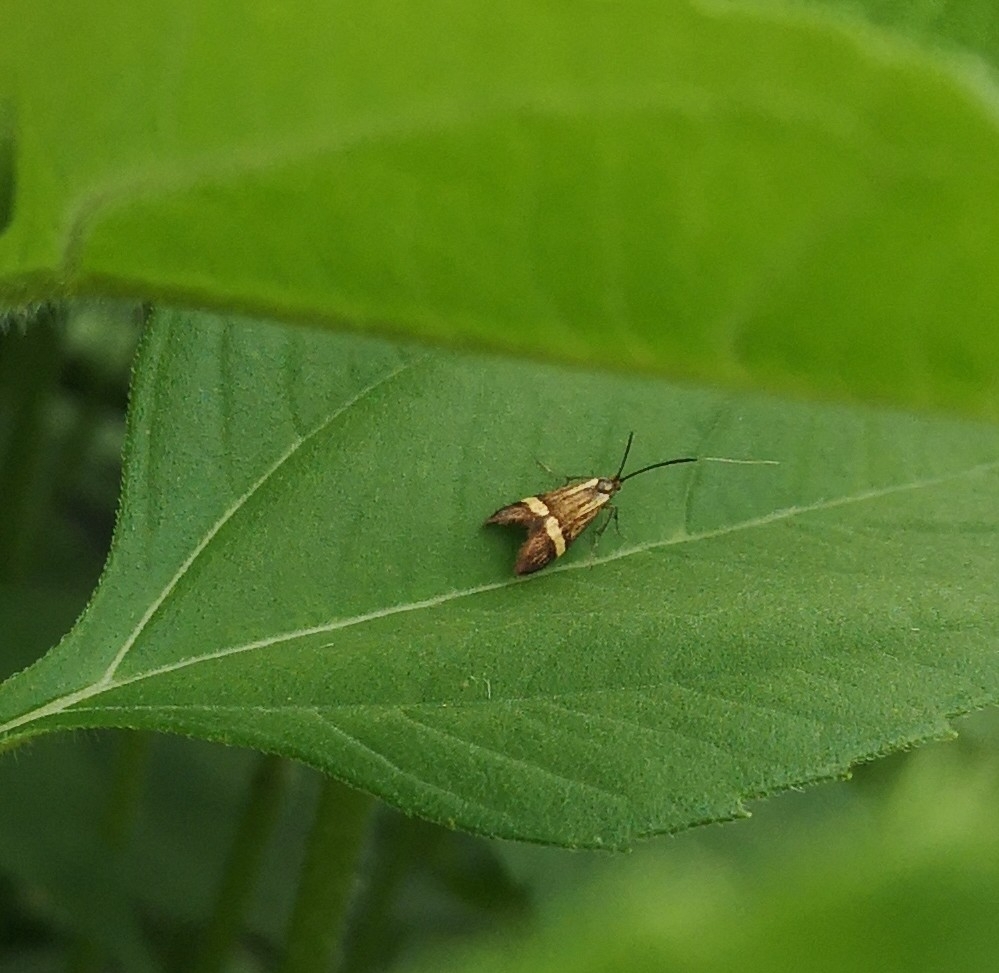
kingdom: Animalia
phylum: Arthropoda
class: Insecta
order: Lepidoptera
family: Adelidae
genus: Nemophora
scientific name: Nemophora
